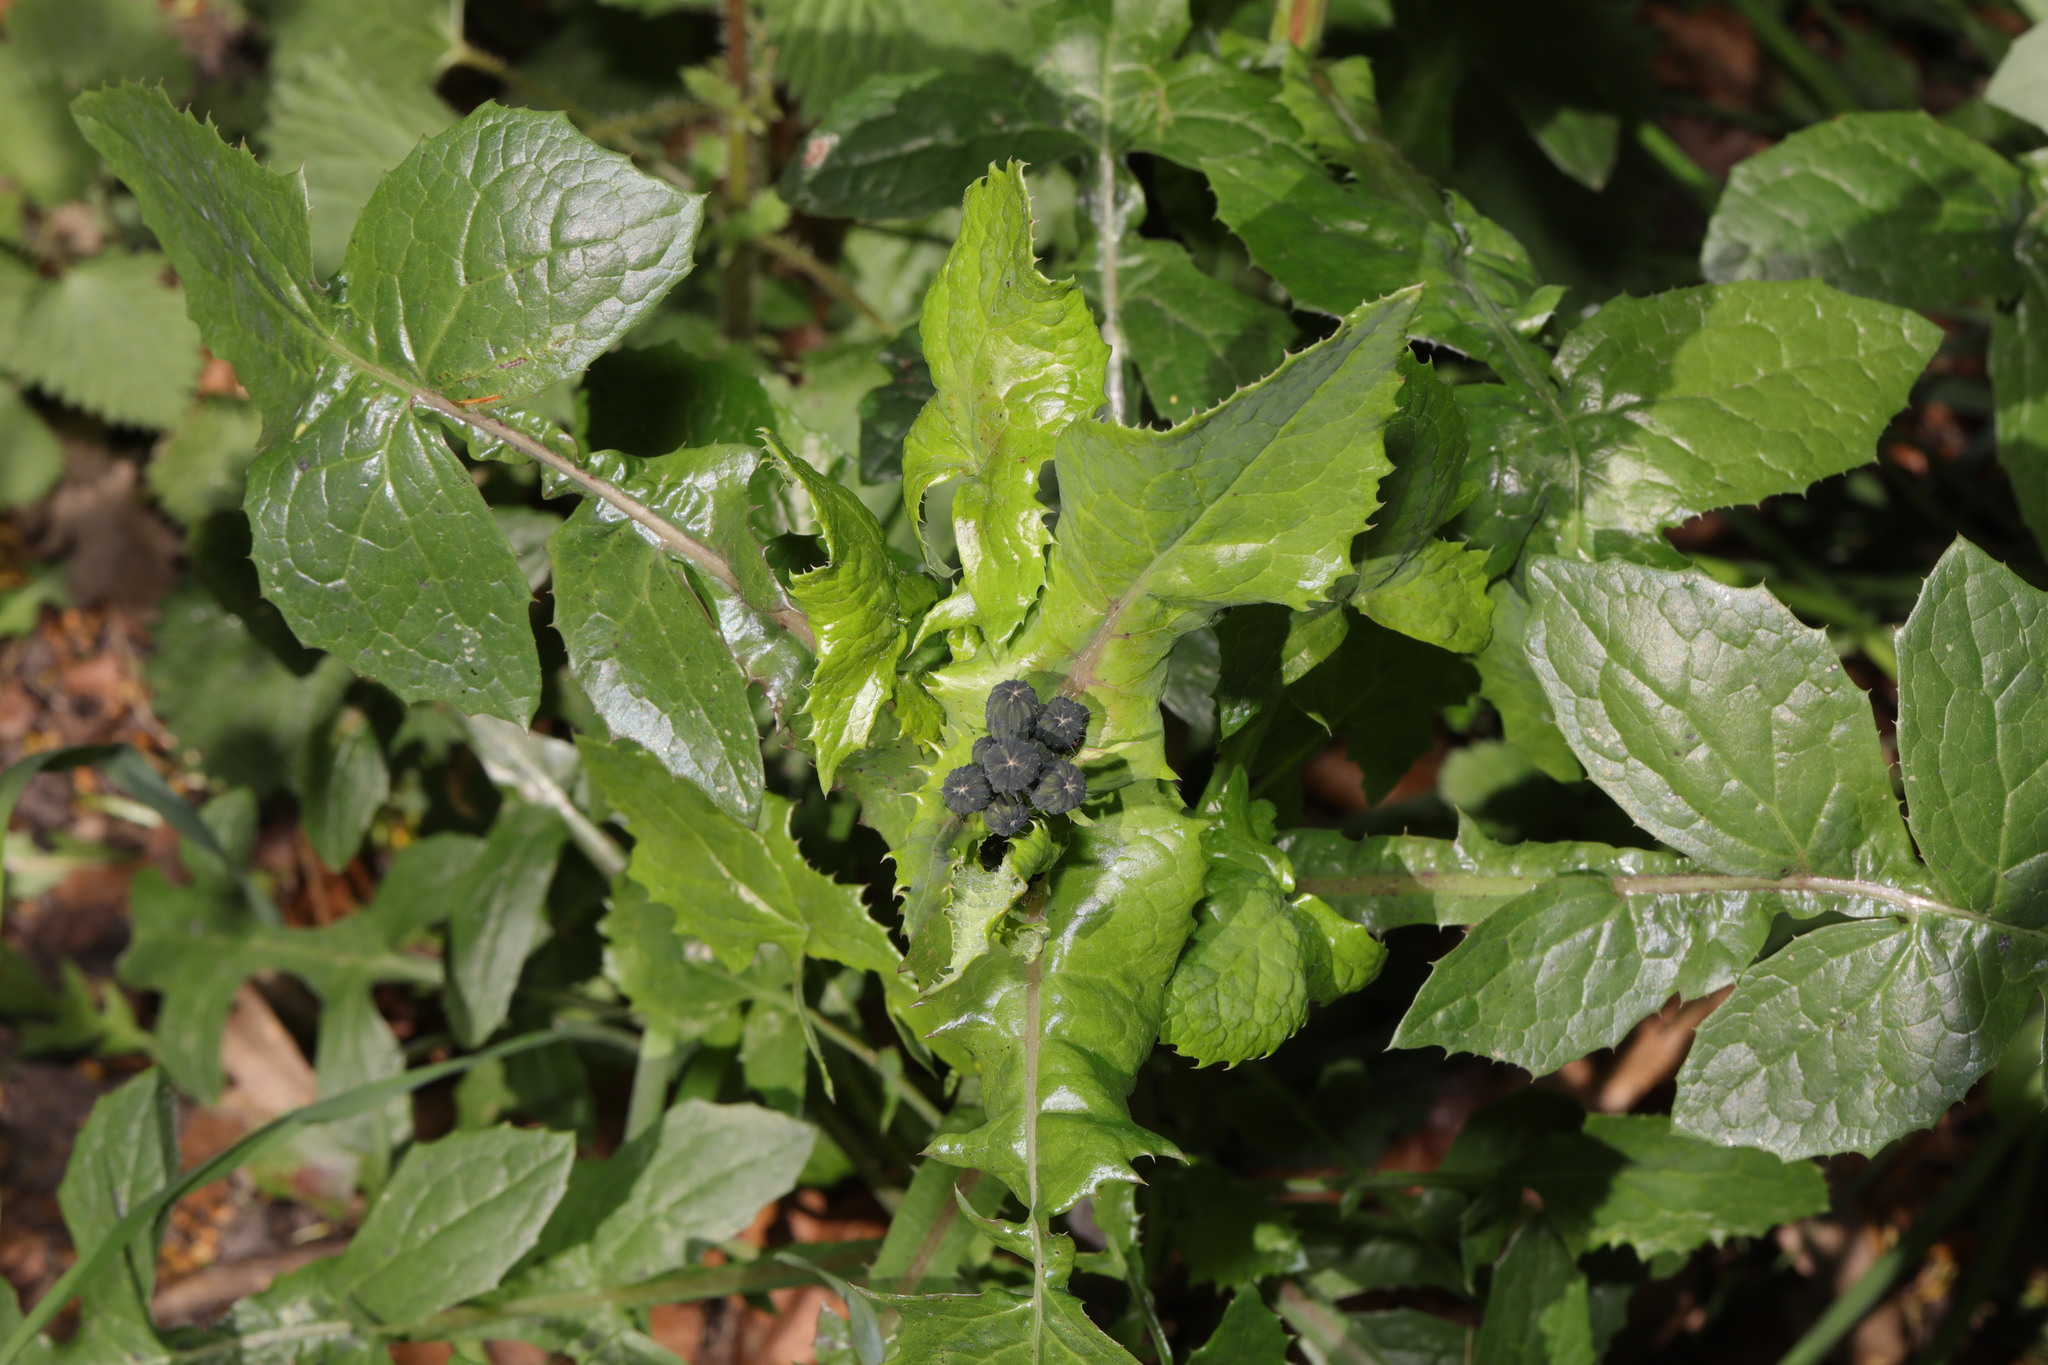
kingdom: Plantae
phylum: Tracheophyta
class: Magnoliopsida
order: Asterales
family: Asteraceae
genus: Sonchus
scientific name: Sonchus oleraceus
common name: Common sowthistle
